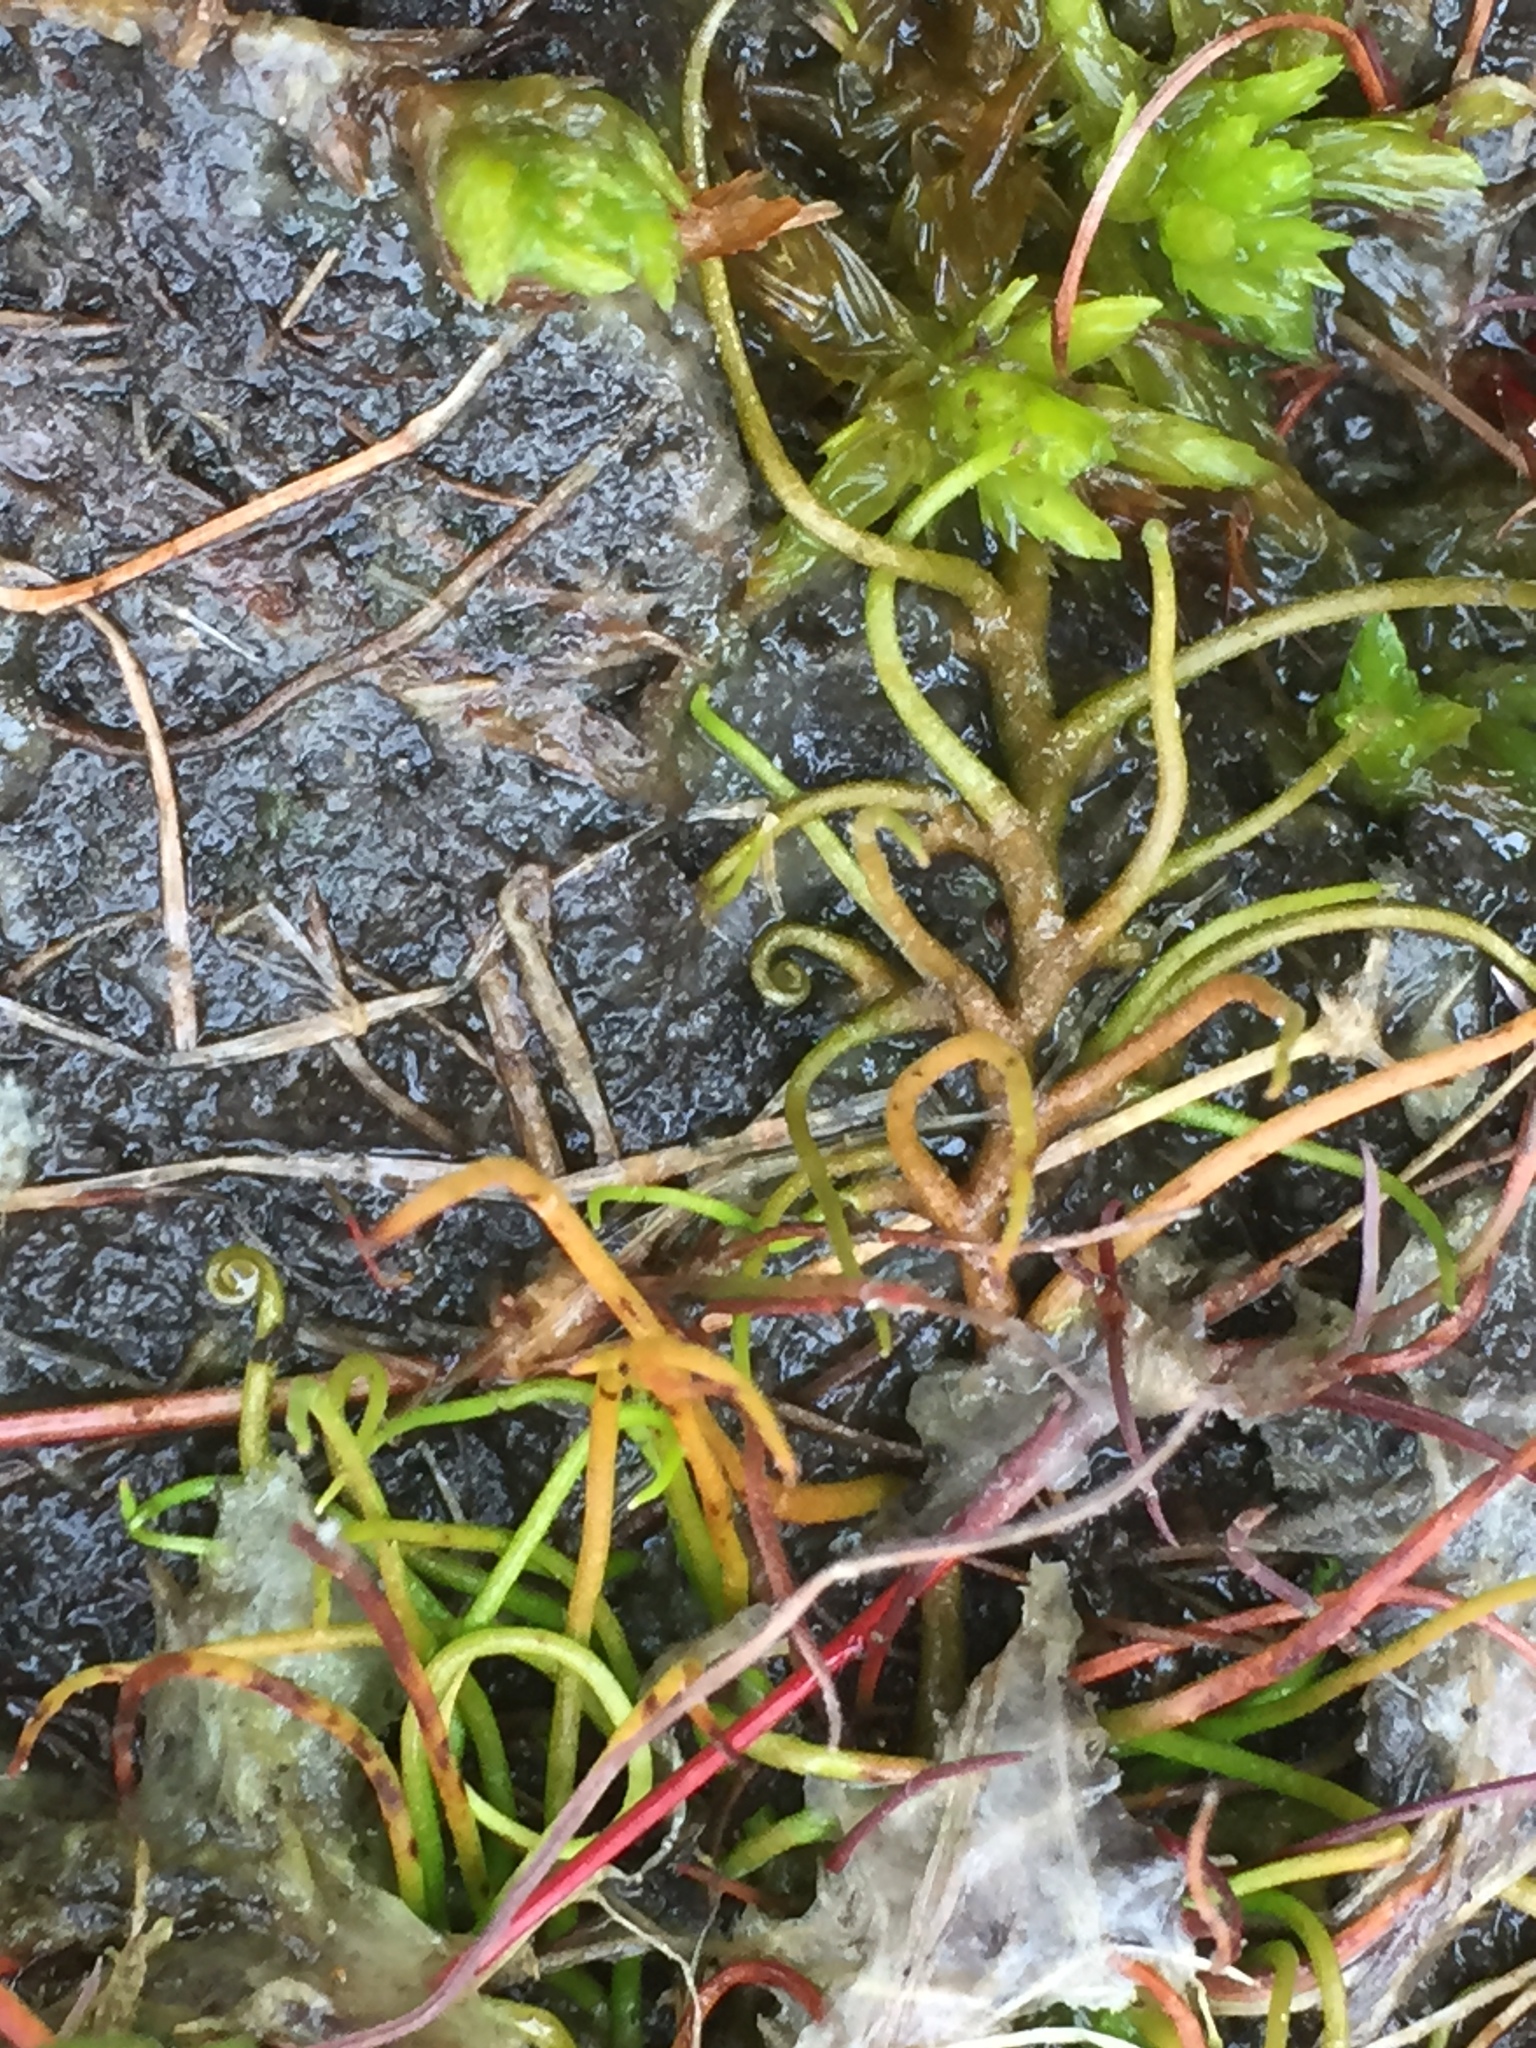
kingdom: Plantae
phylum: Tracheophyta
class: Polypodiopsida
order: Salviniales
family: Marsileaceae
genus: Pilularia
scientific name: Pilularia globulifera
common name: Pillwort
